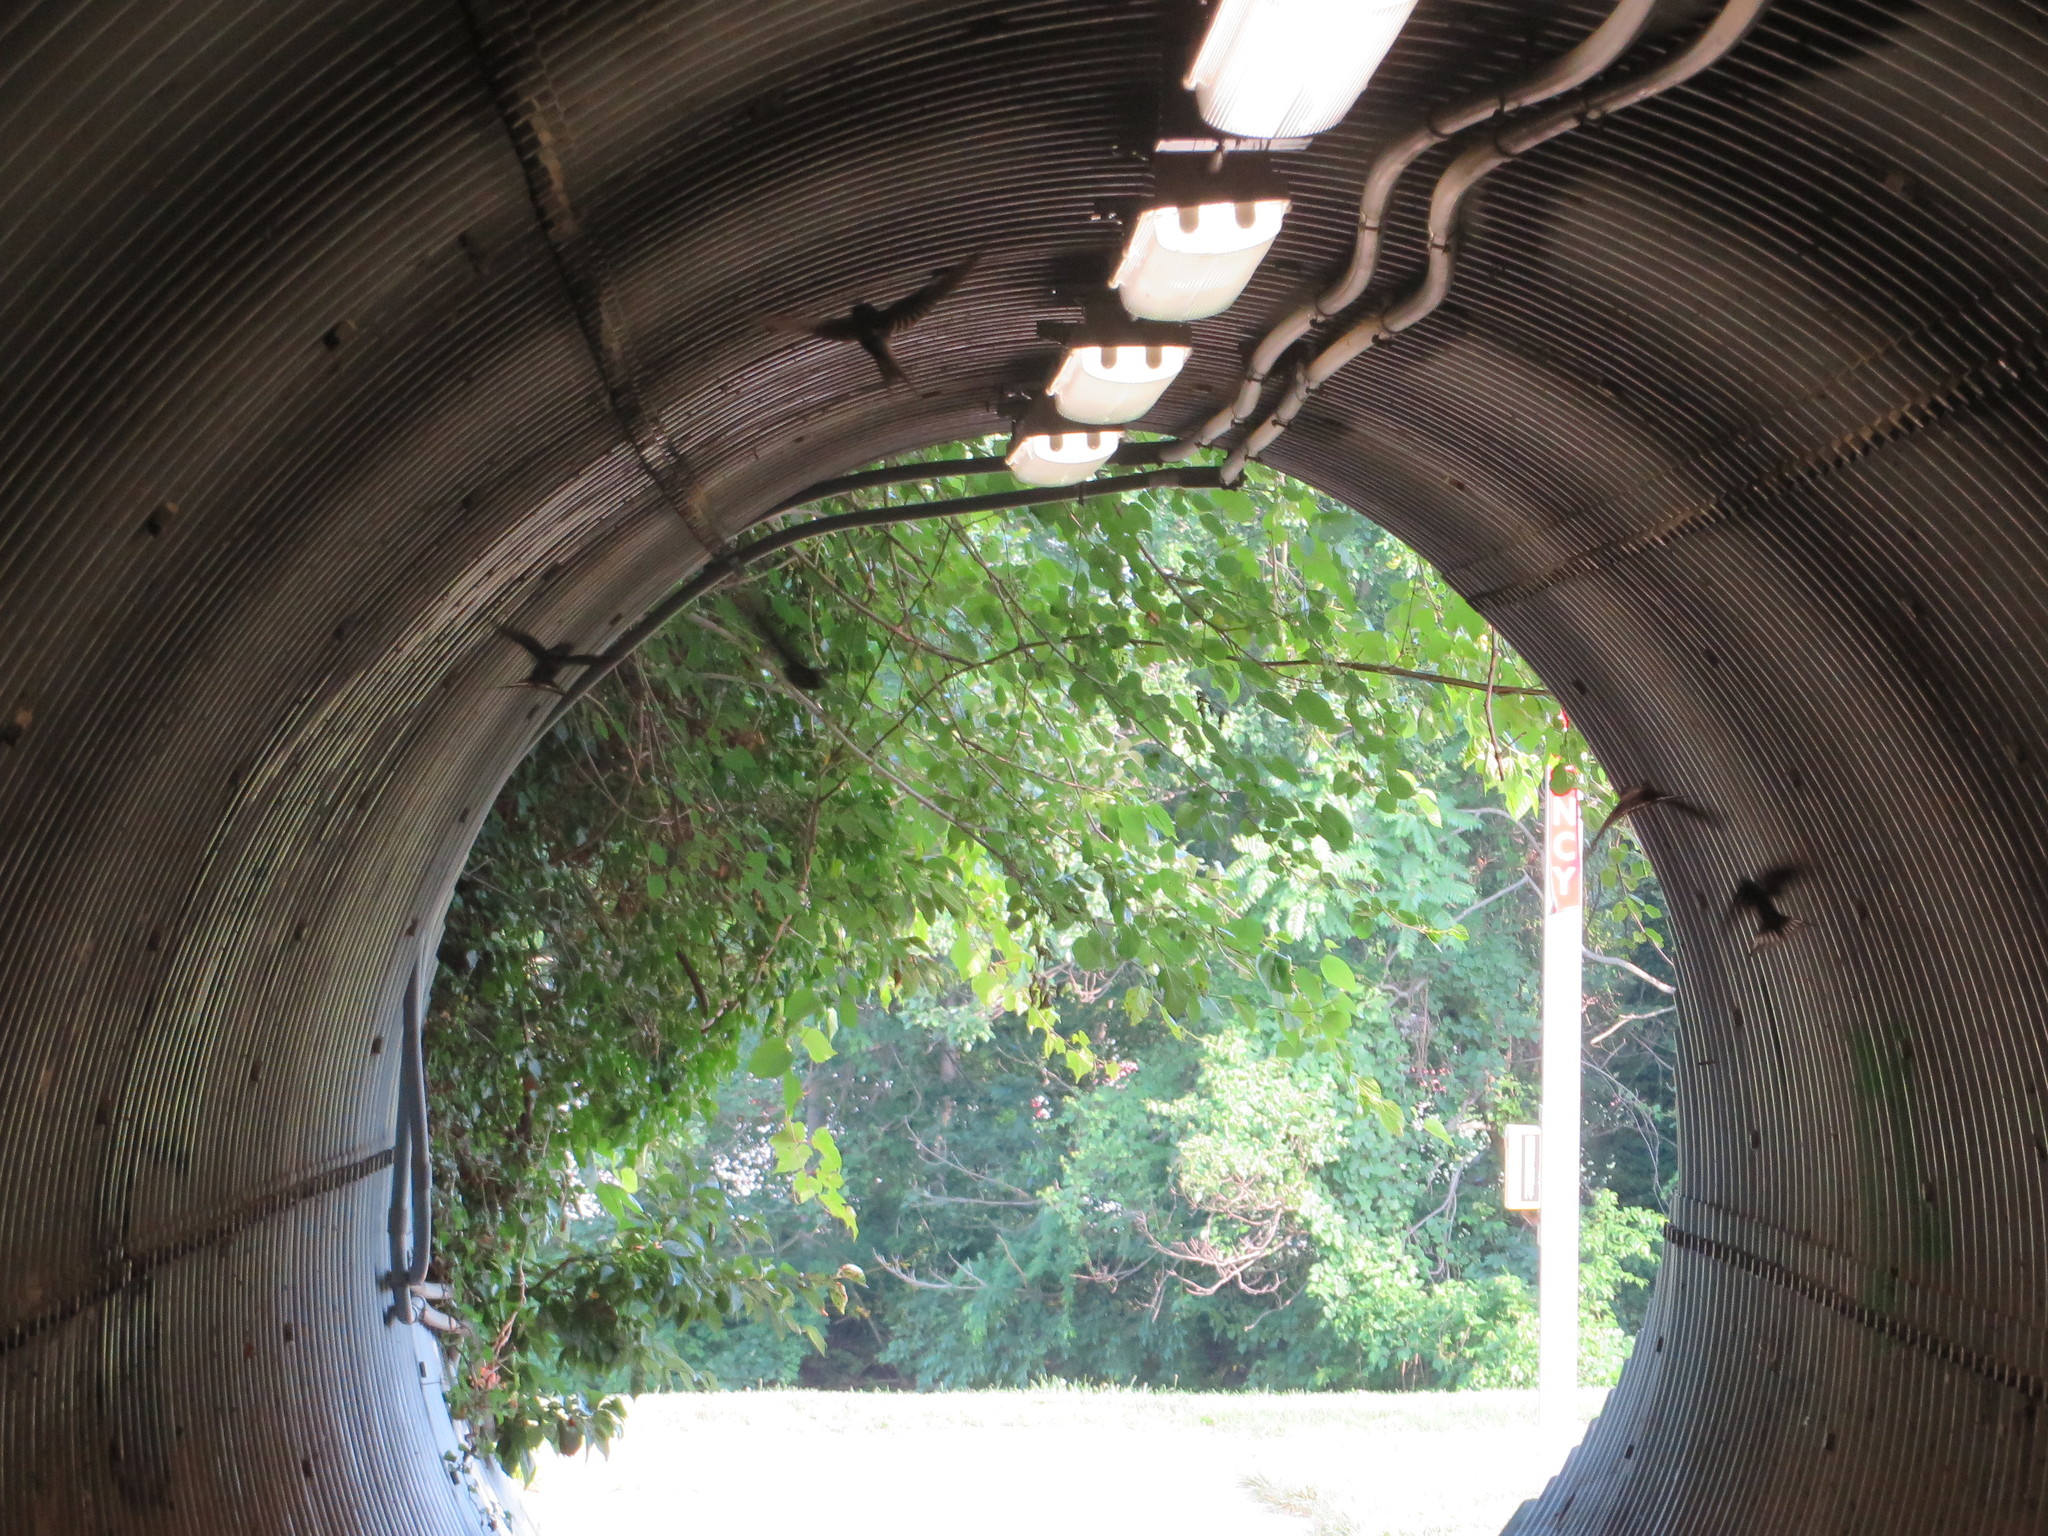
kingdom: Animalia
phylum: Chordata
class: Aves
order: Passeriformes
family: Hirundinidae
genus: Hirundo
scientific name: Hirundo rustica
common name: Barn swallow
